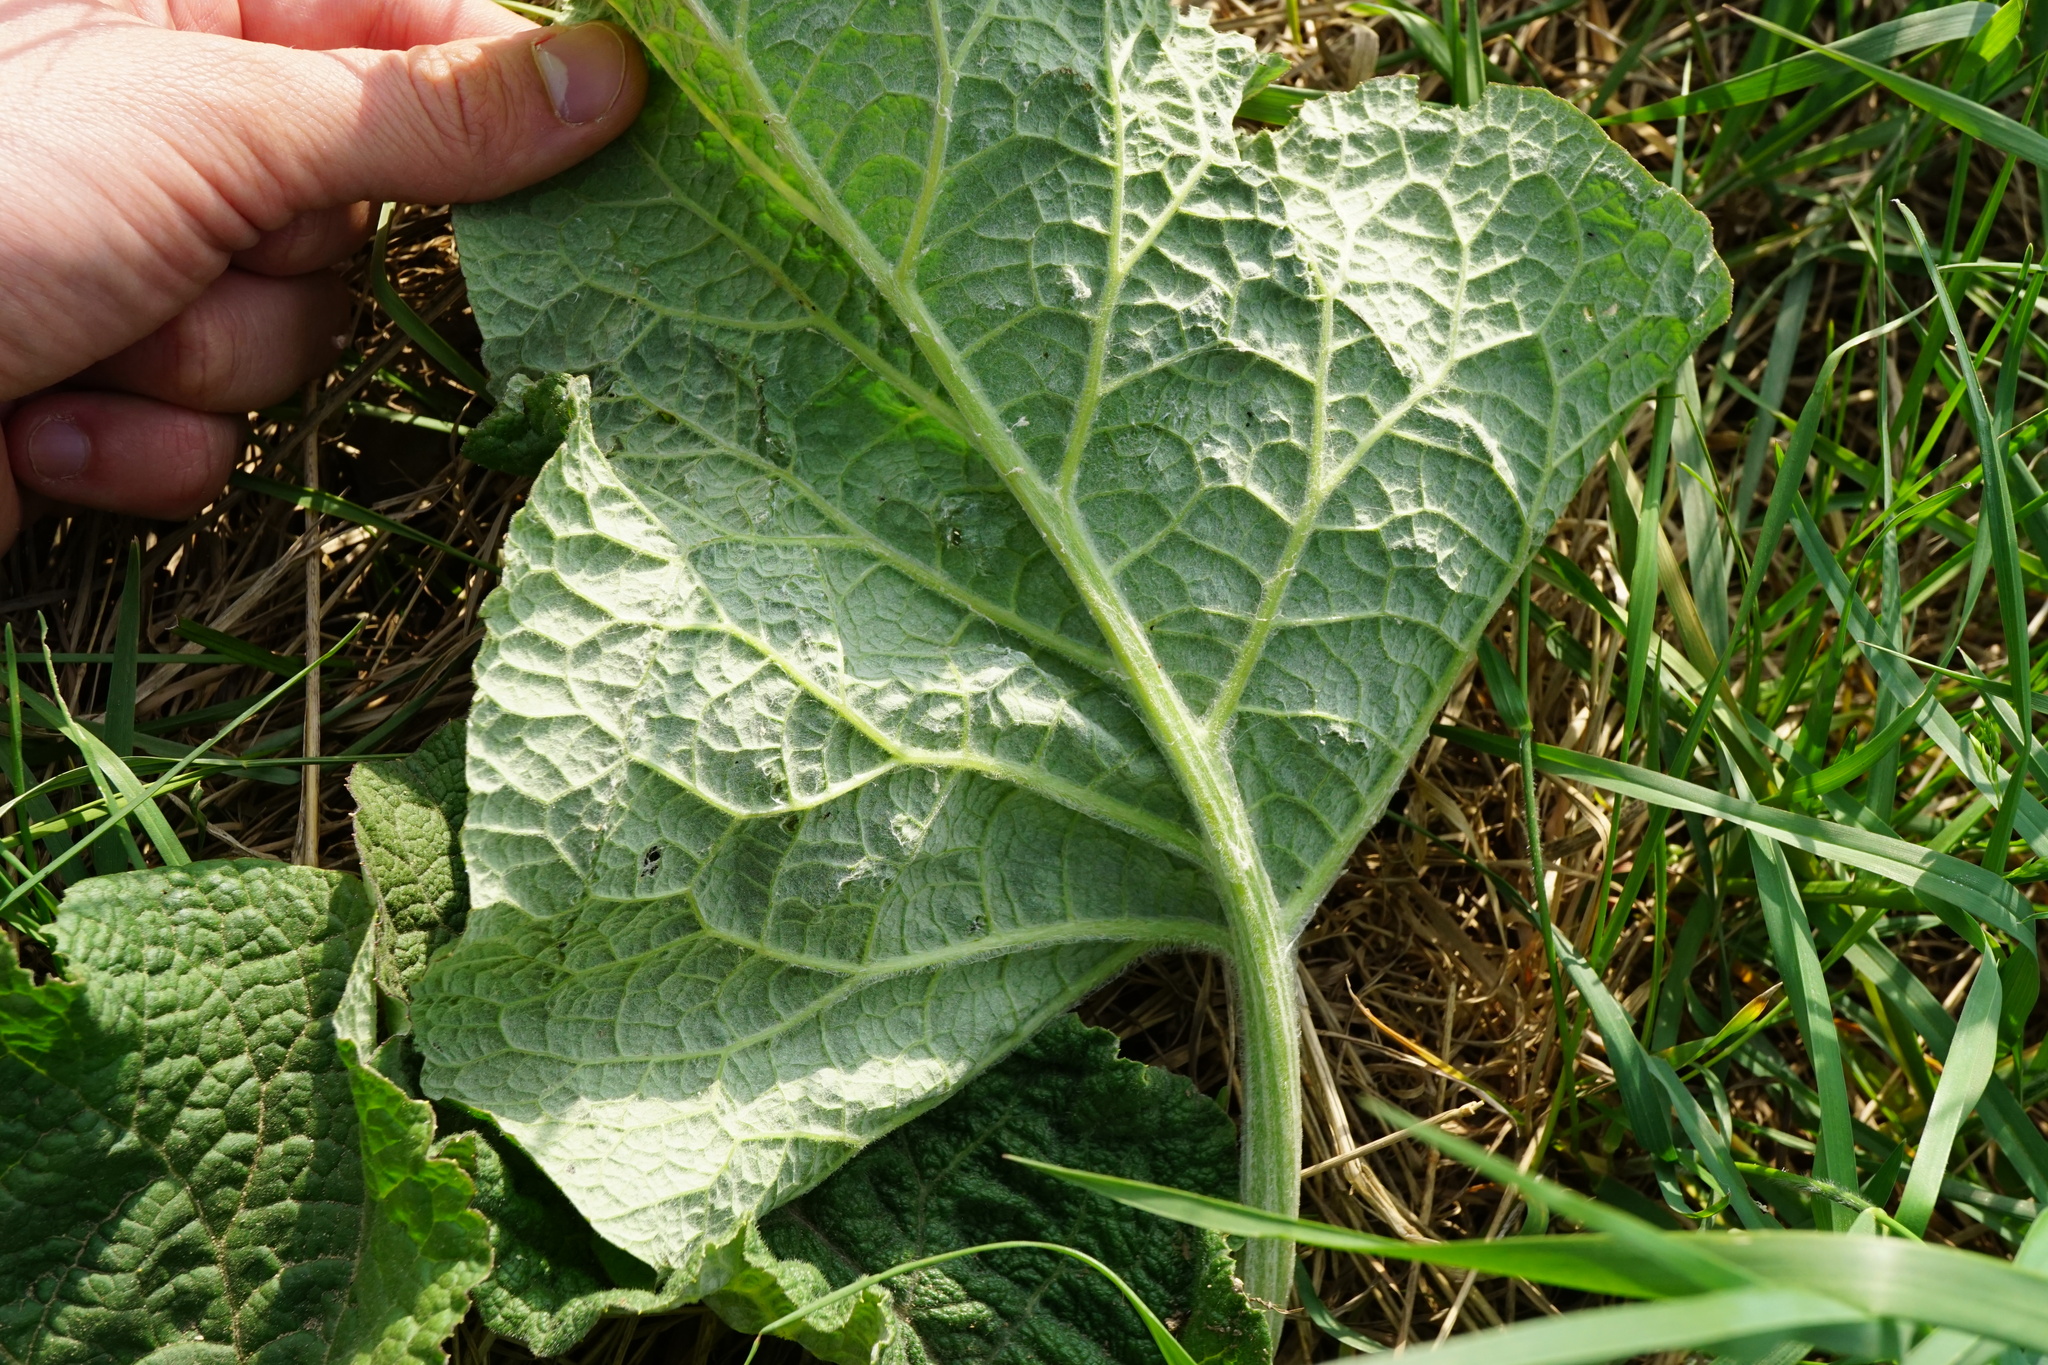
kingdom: Plantae
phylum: Tracheophyta
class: Magnoliopsida
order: Asterales
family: Asteraceae
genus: Arctium
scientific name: Arctium
